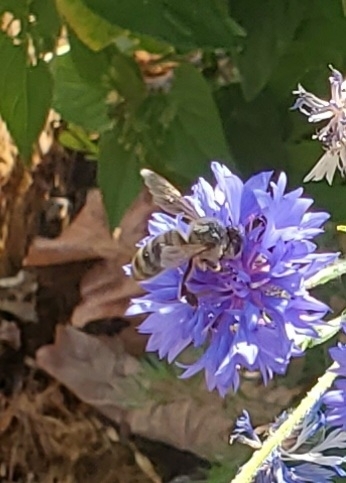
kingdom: Animalia
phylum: Arthropoda
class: Insecta
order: Hymenoptera
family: Apidae
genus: Apis
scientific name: Apis mellifera
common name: Honey bee
